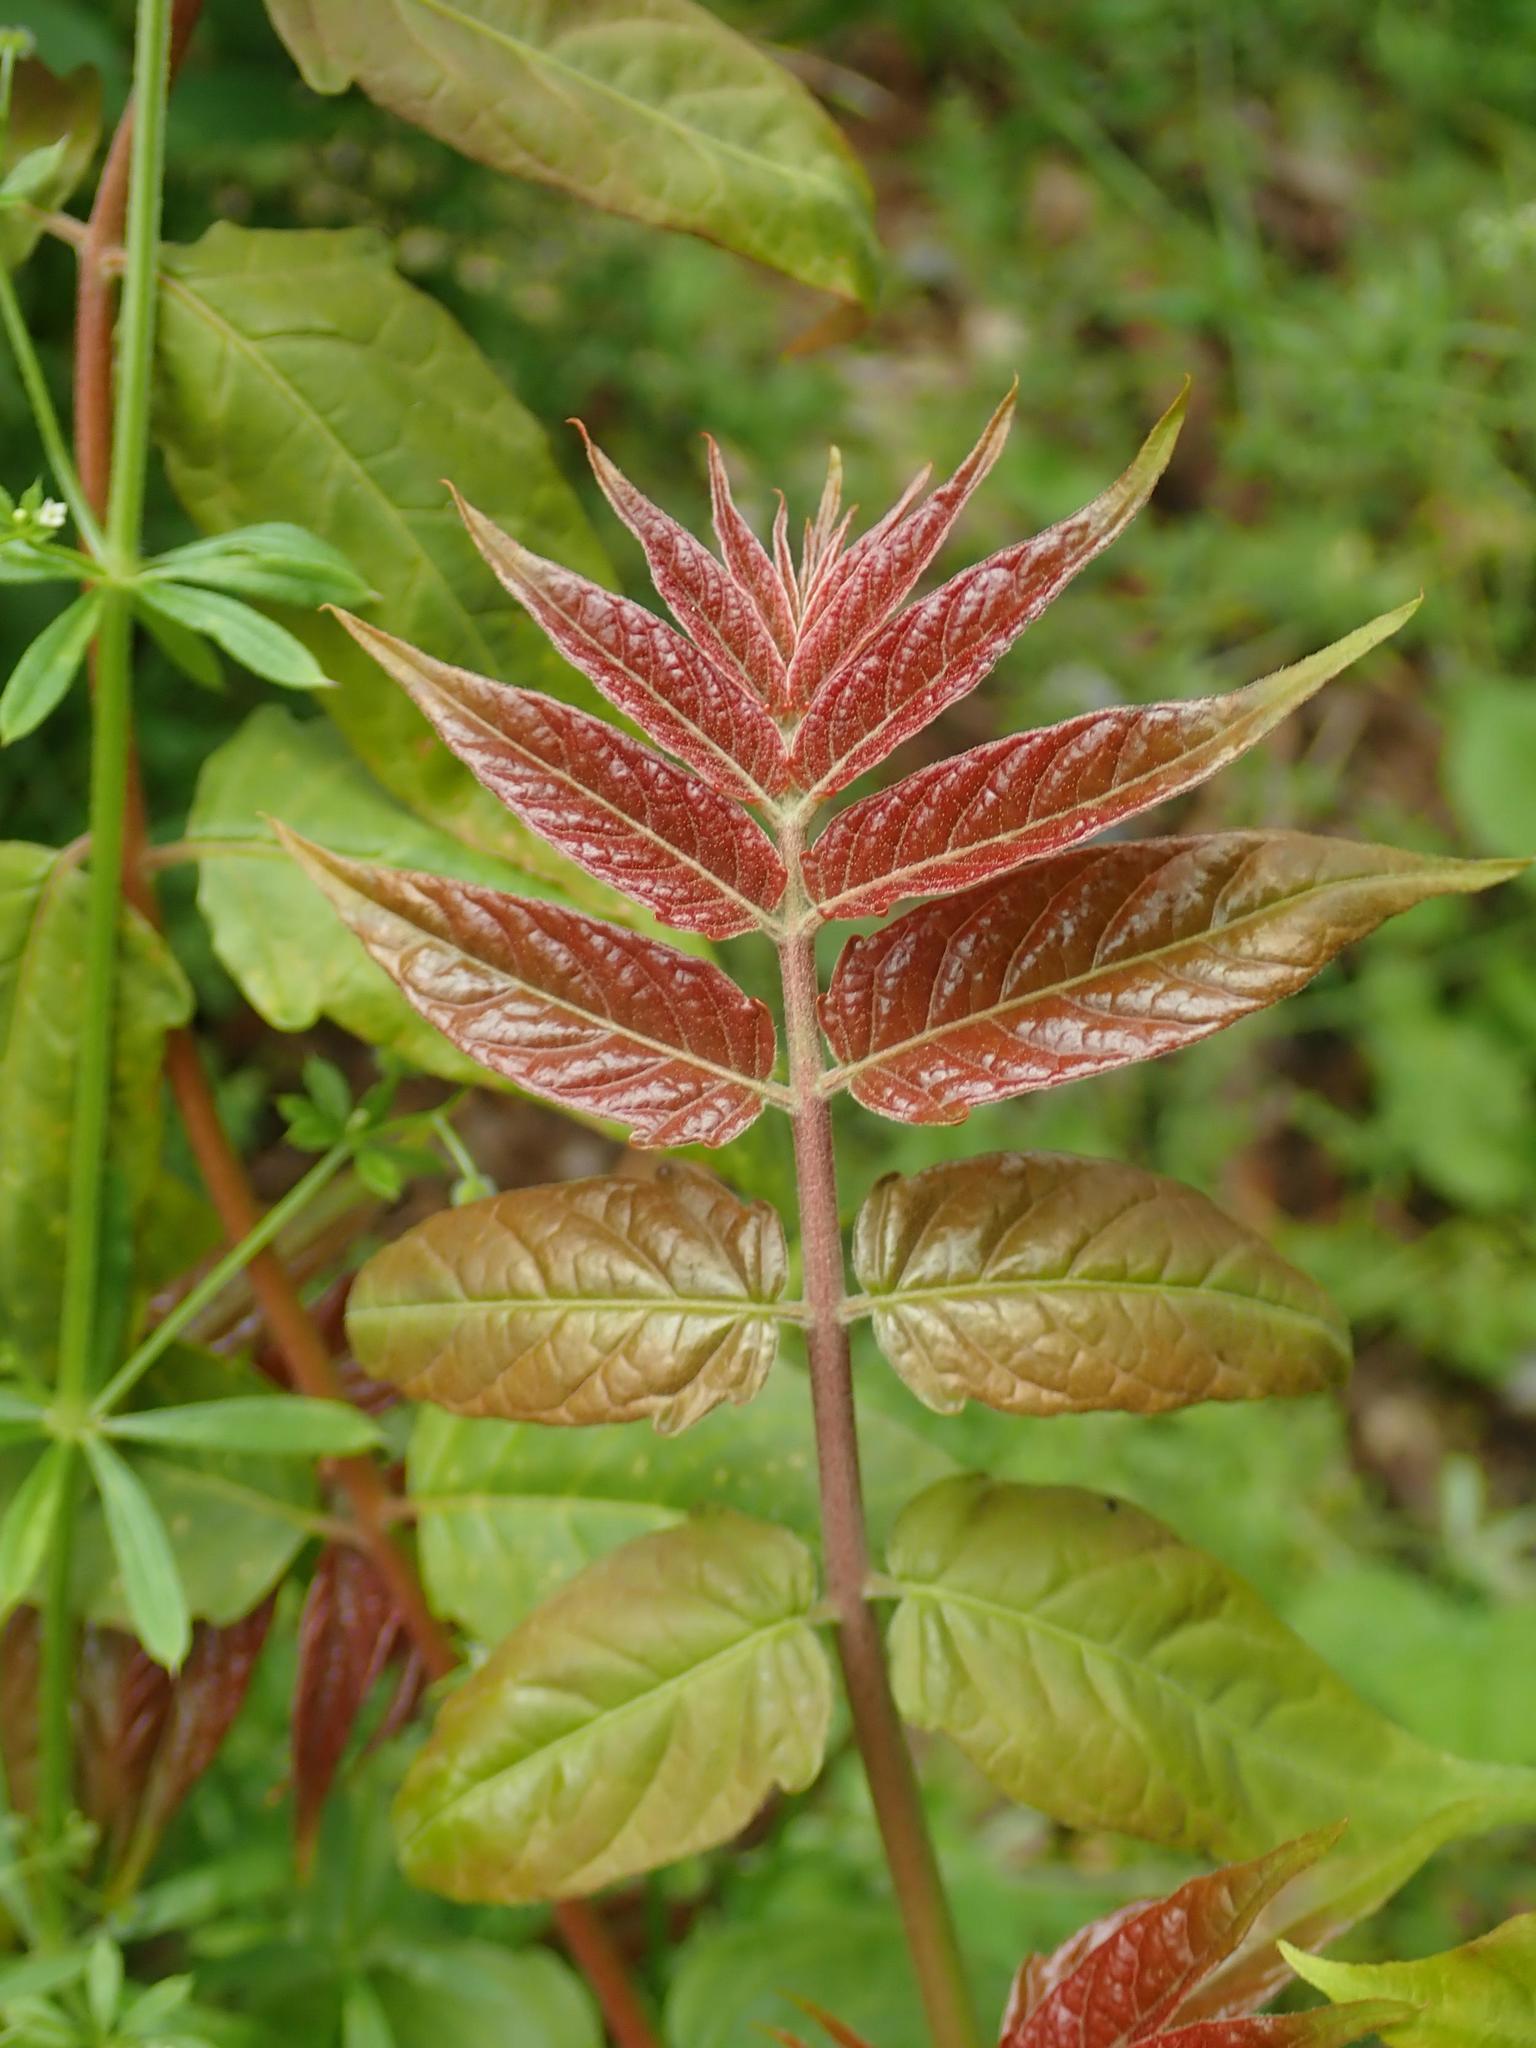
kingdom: Plantae
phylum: Tracheophyta
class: Magnoliopsida
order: Sapindales
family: Simaroubaceae
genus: Ailanthus
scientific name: Ailanthus altissima
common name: Tree-of-heaven
